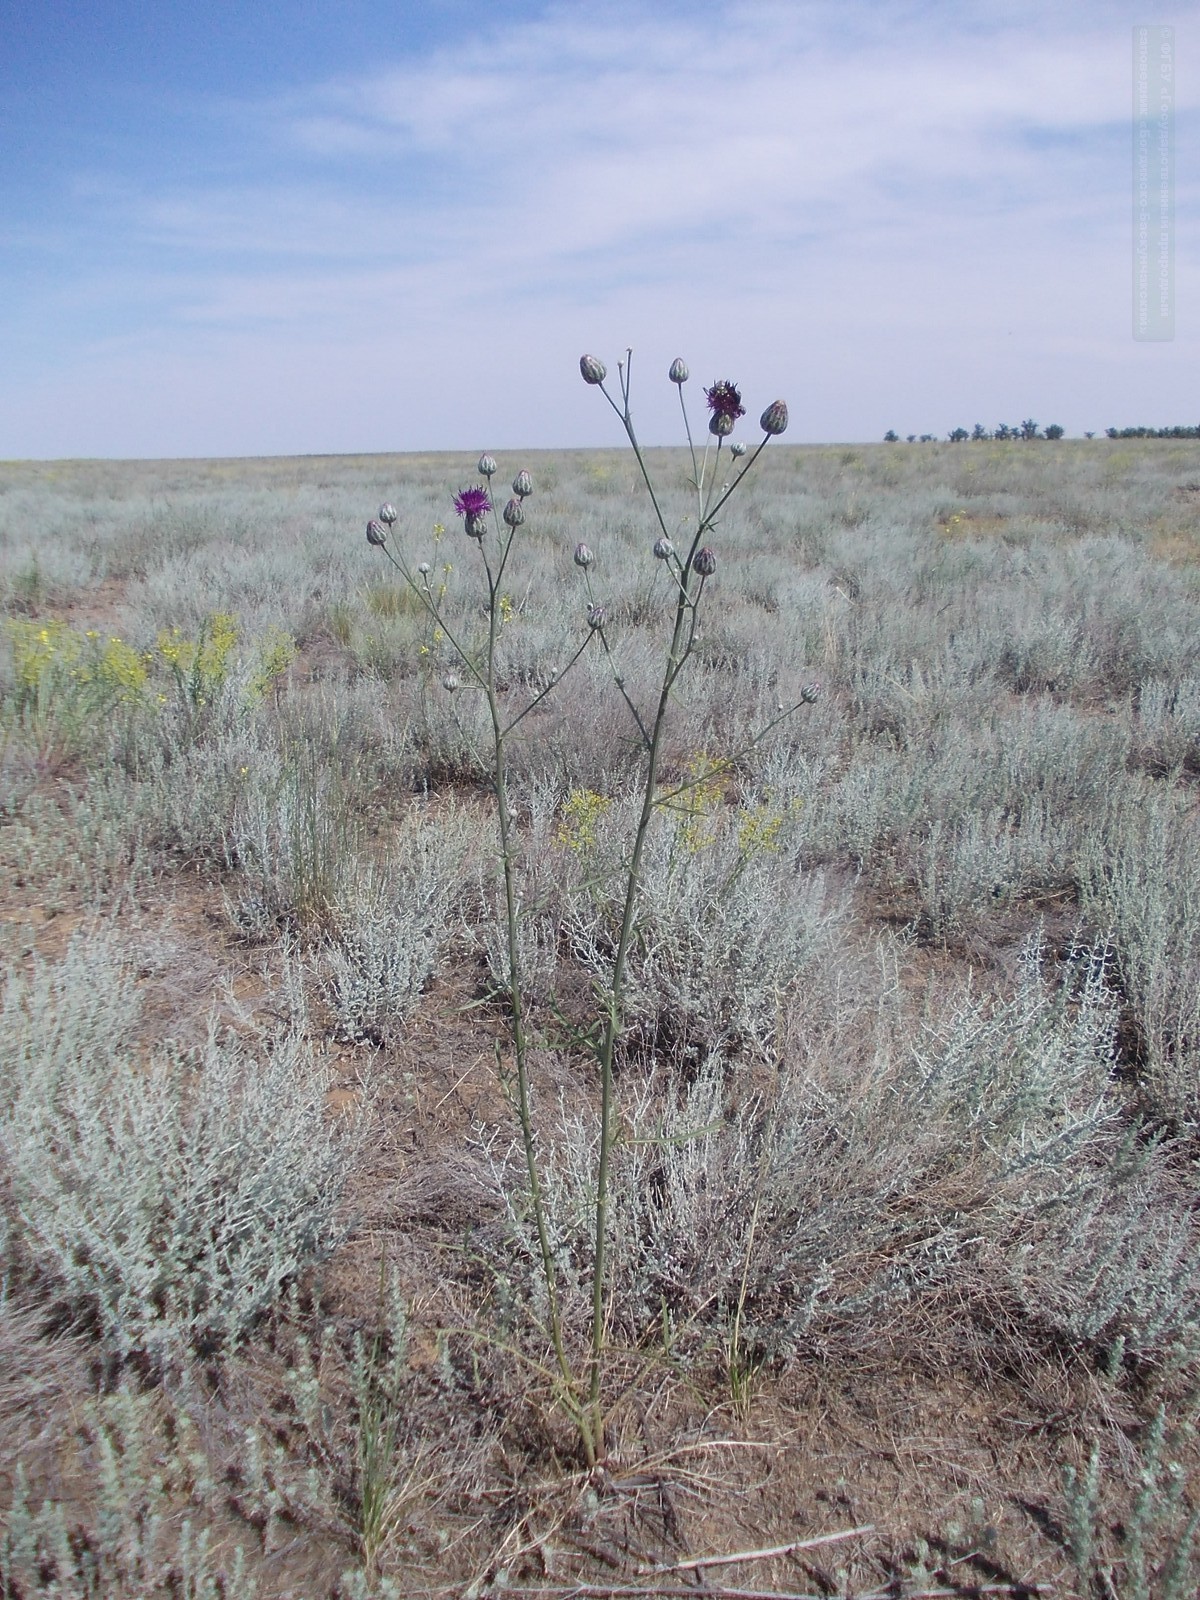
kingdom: Plantae
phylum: Tracheophyta
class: Magnoliopsida
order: Asterales
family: Asteraceae
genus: Centaurea
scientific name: Centaurea adpressa
